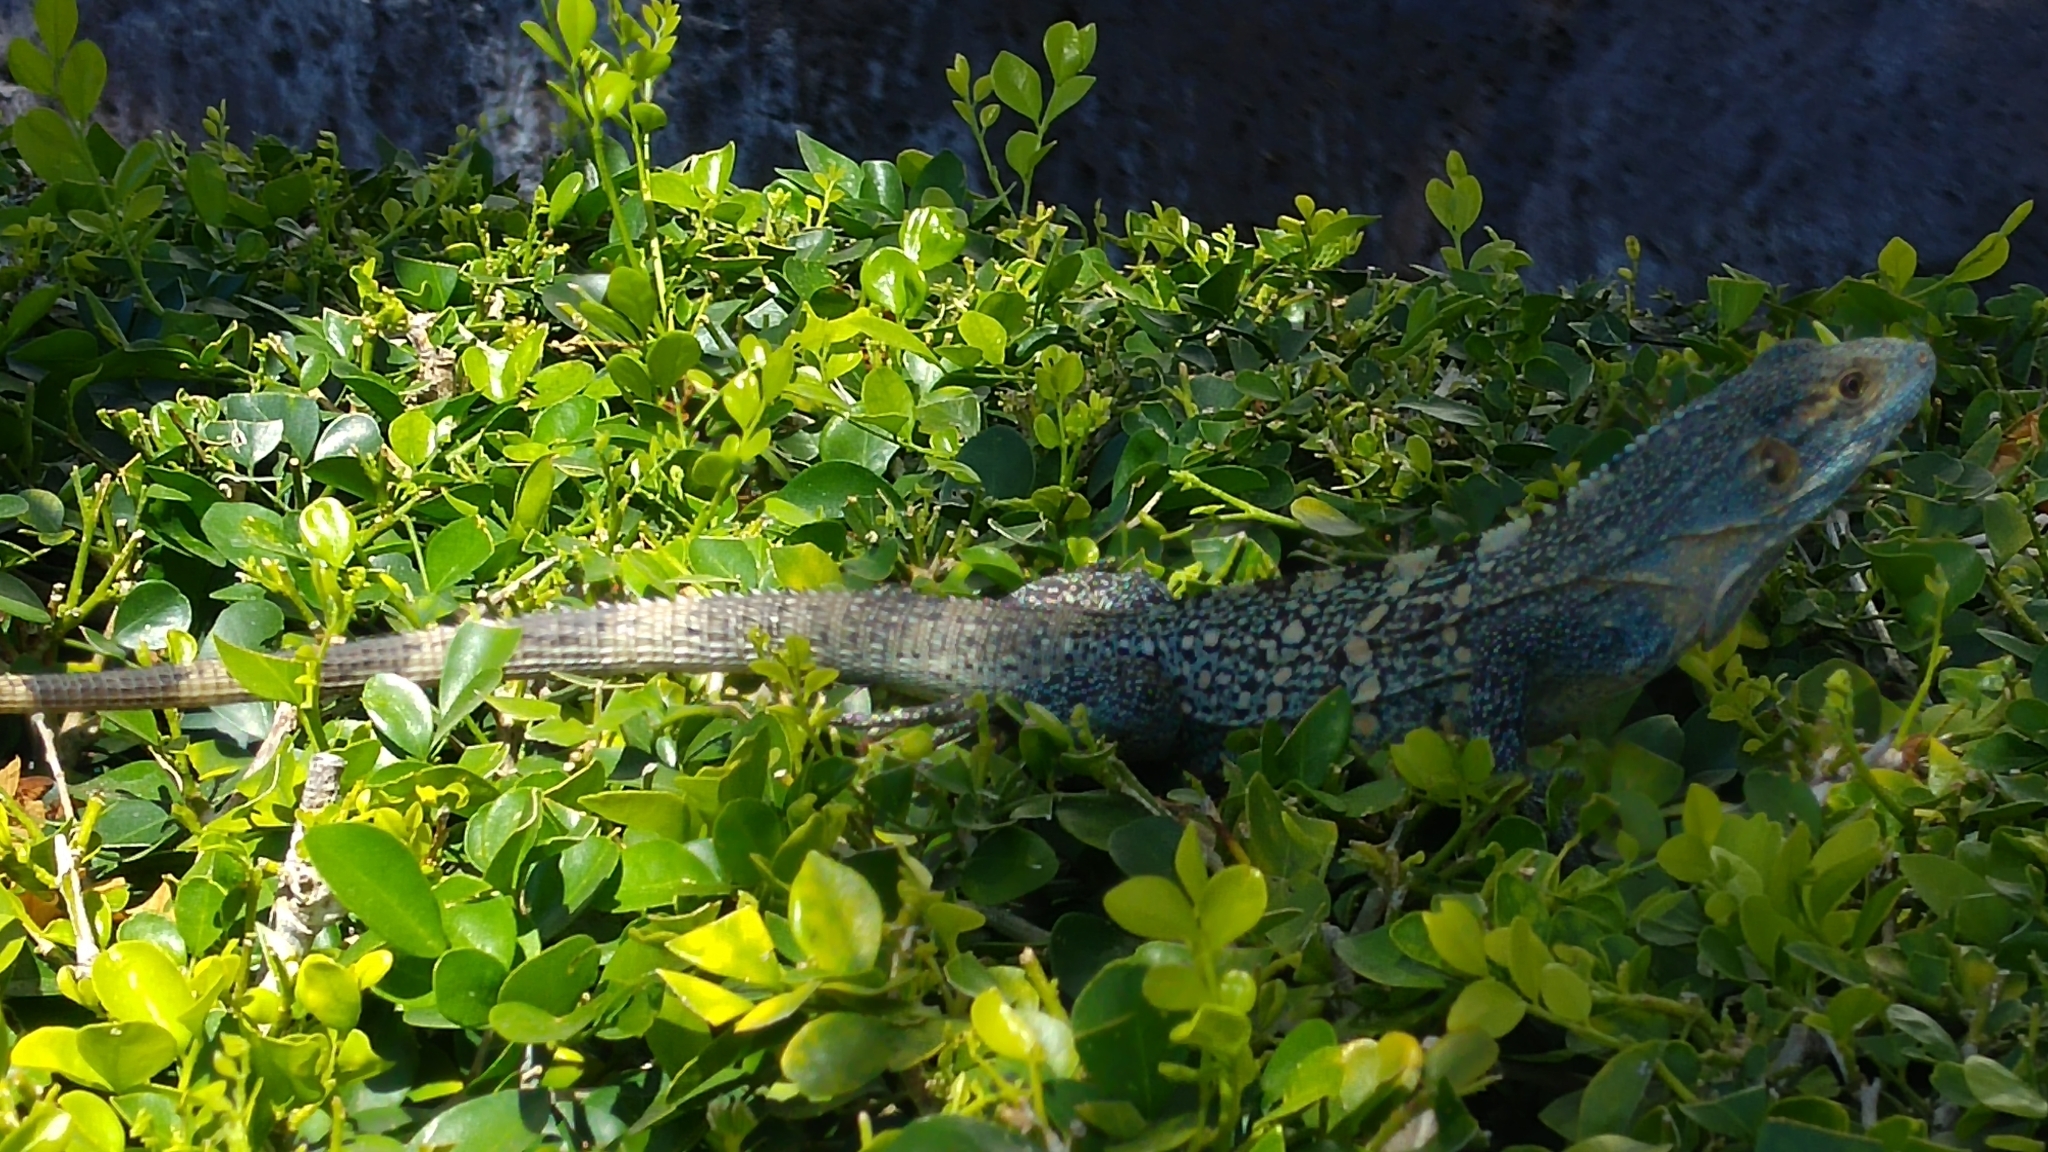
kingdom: Animalia
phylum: Chordata
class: Squamata
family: Iguanidae
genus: Ctenosaura
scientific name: Ctenosaura similis
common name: Black spiny-tailed iguana
